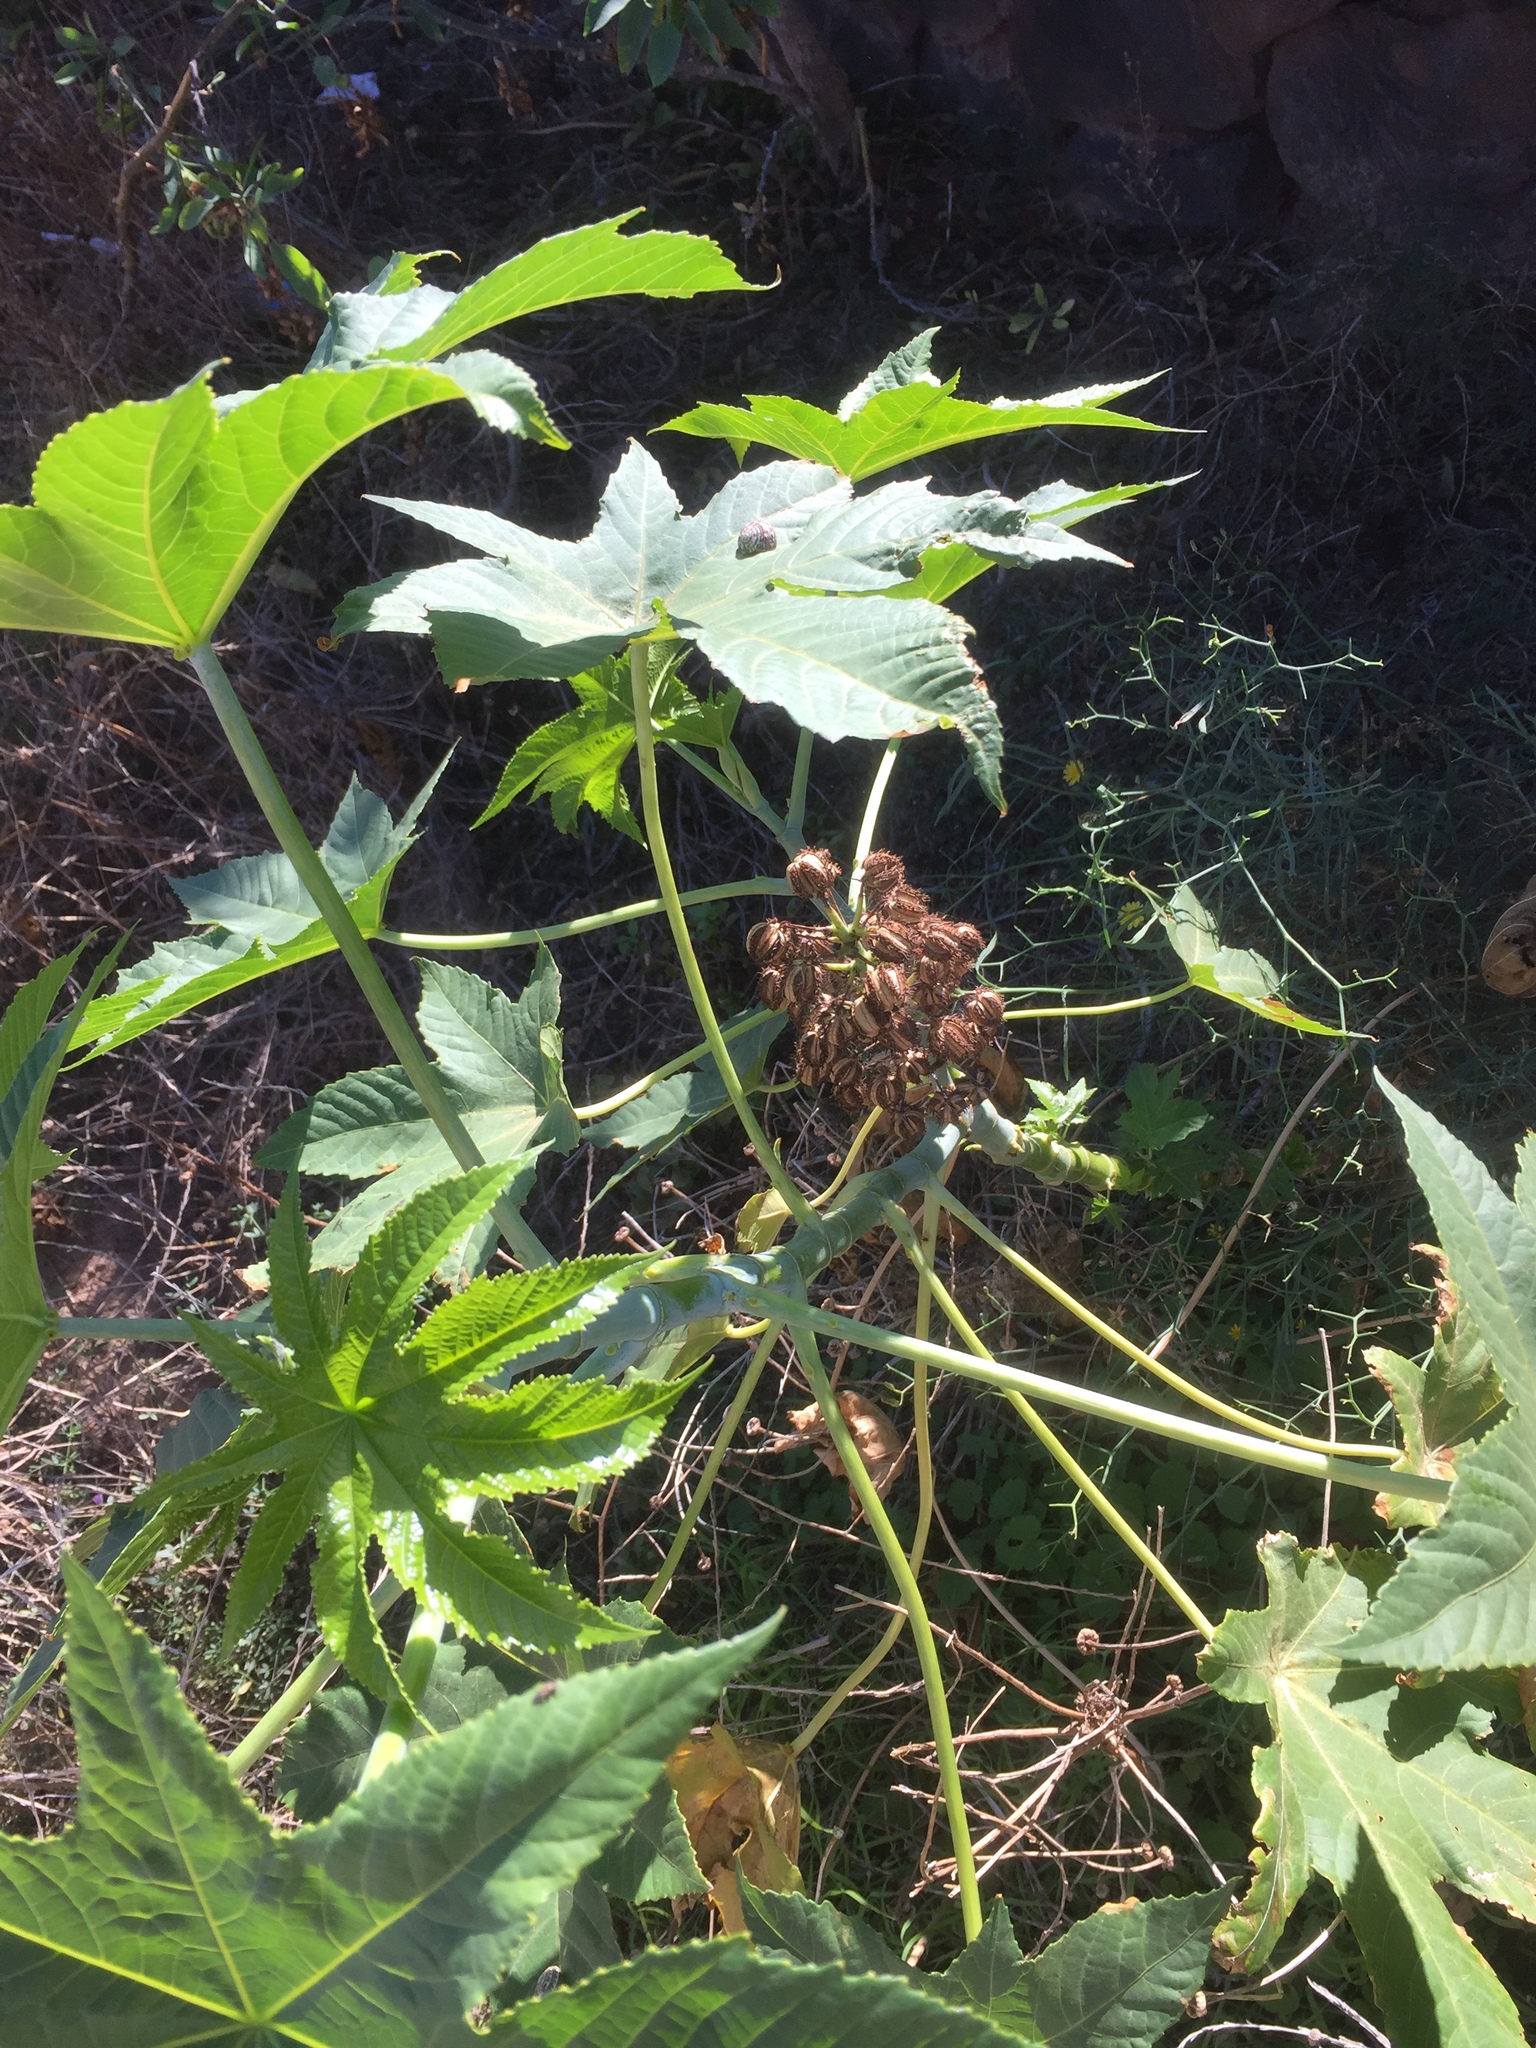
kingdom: Plantae
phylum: Tracheophyta
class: Magnoliopsida
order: Malpighiales
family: Euphorbiaceae
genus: Ricinus
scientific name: Ricinus communis
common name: Castor-oil-plant
